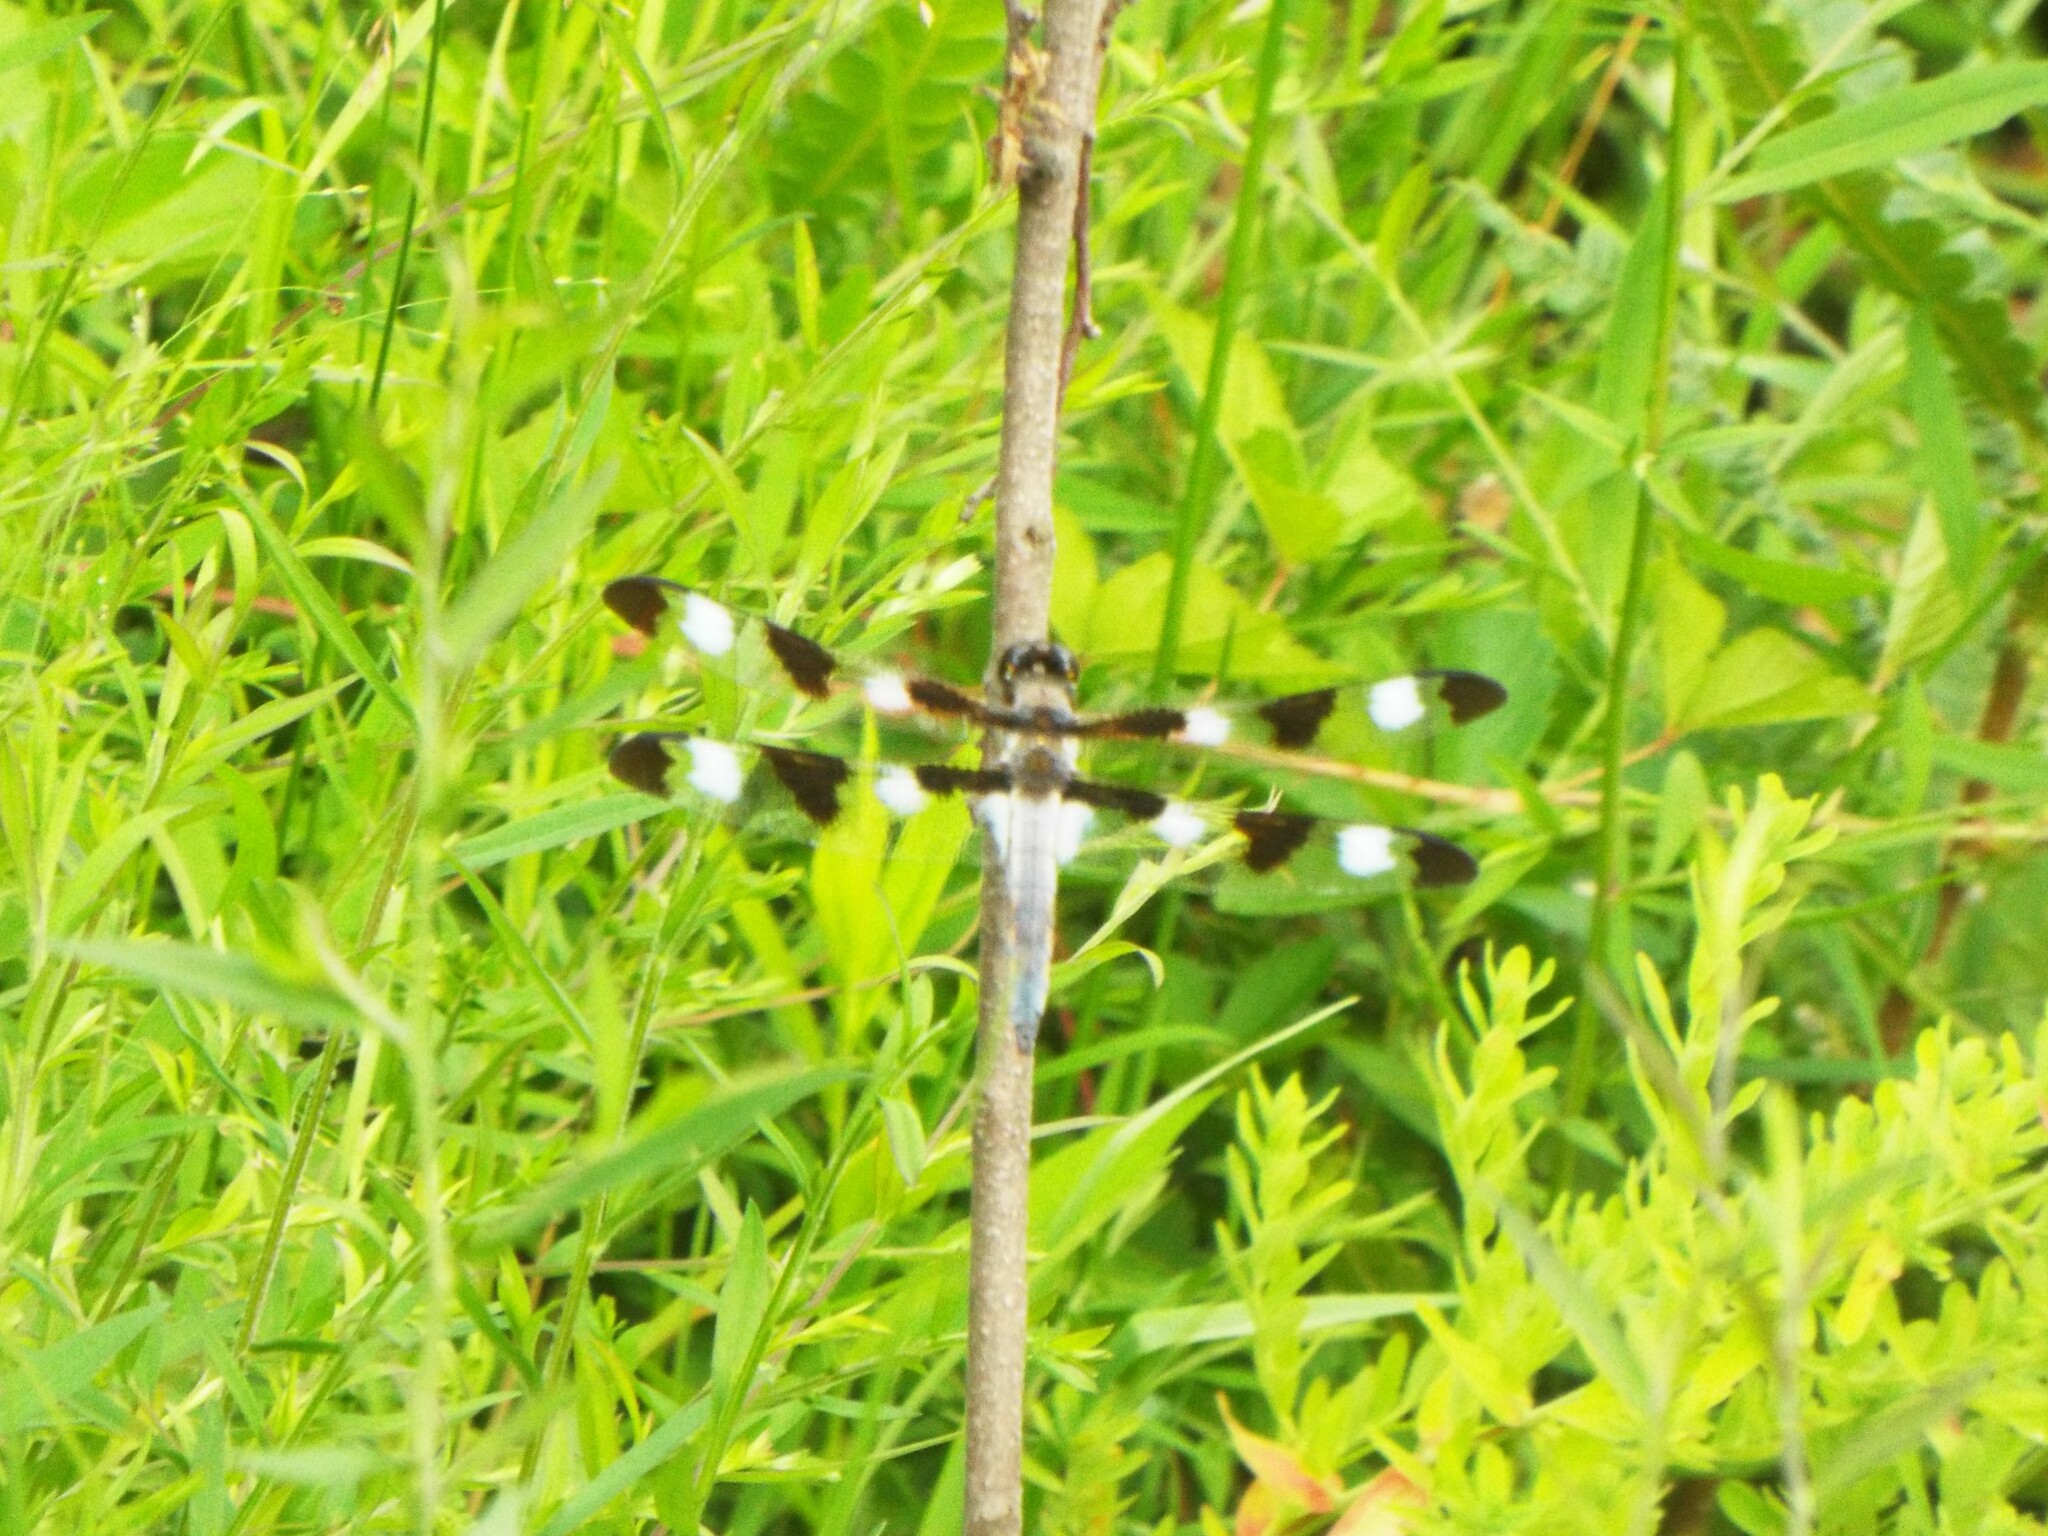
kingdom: Animalia
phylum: Arthropoda
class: Insecta
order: Odonata
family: Libellulidae
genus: Libellula
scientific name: Libellula pulchella
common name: Twelve-spotted skimmer
